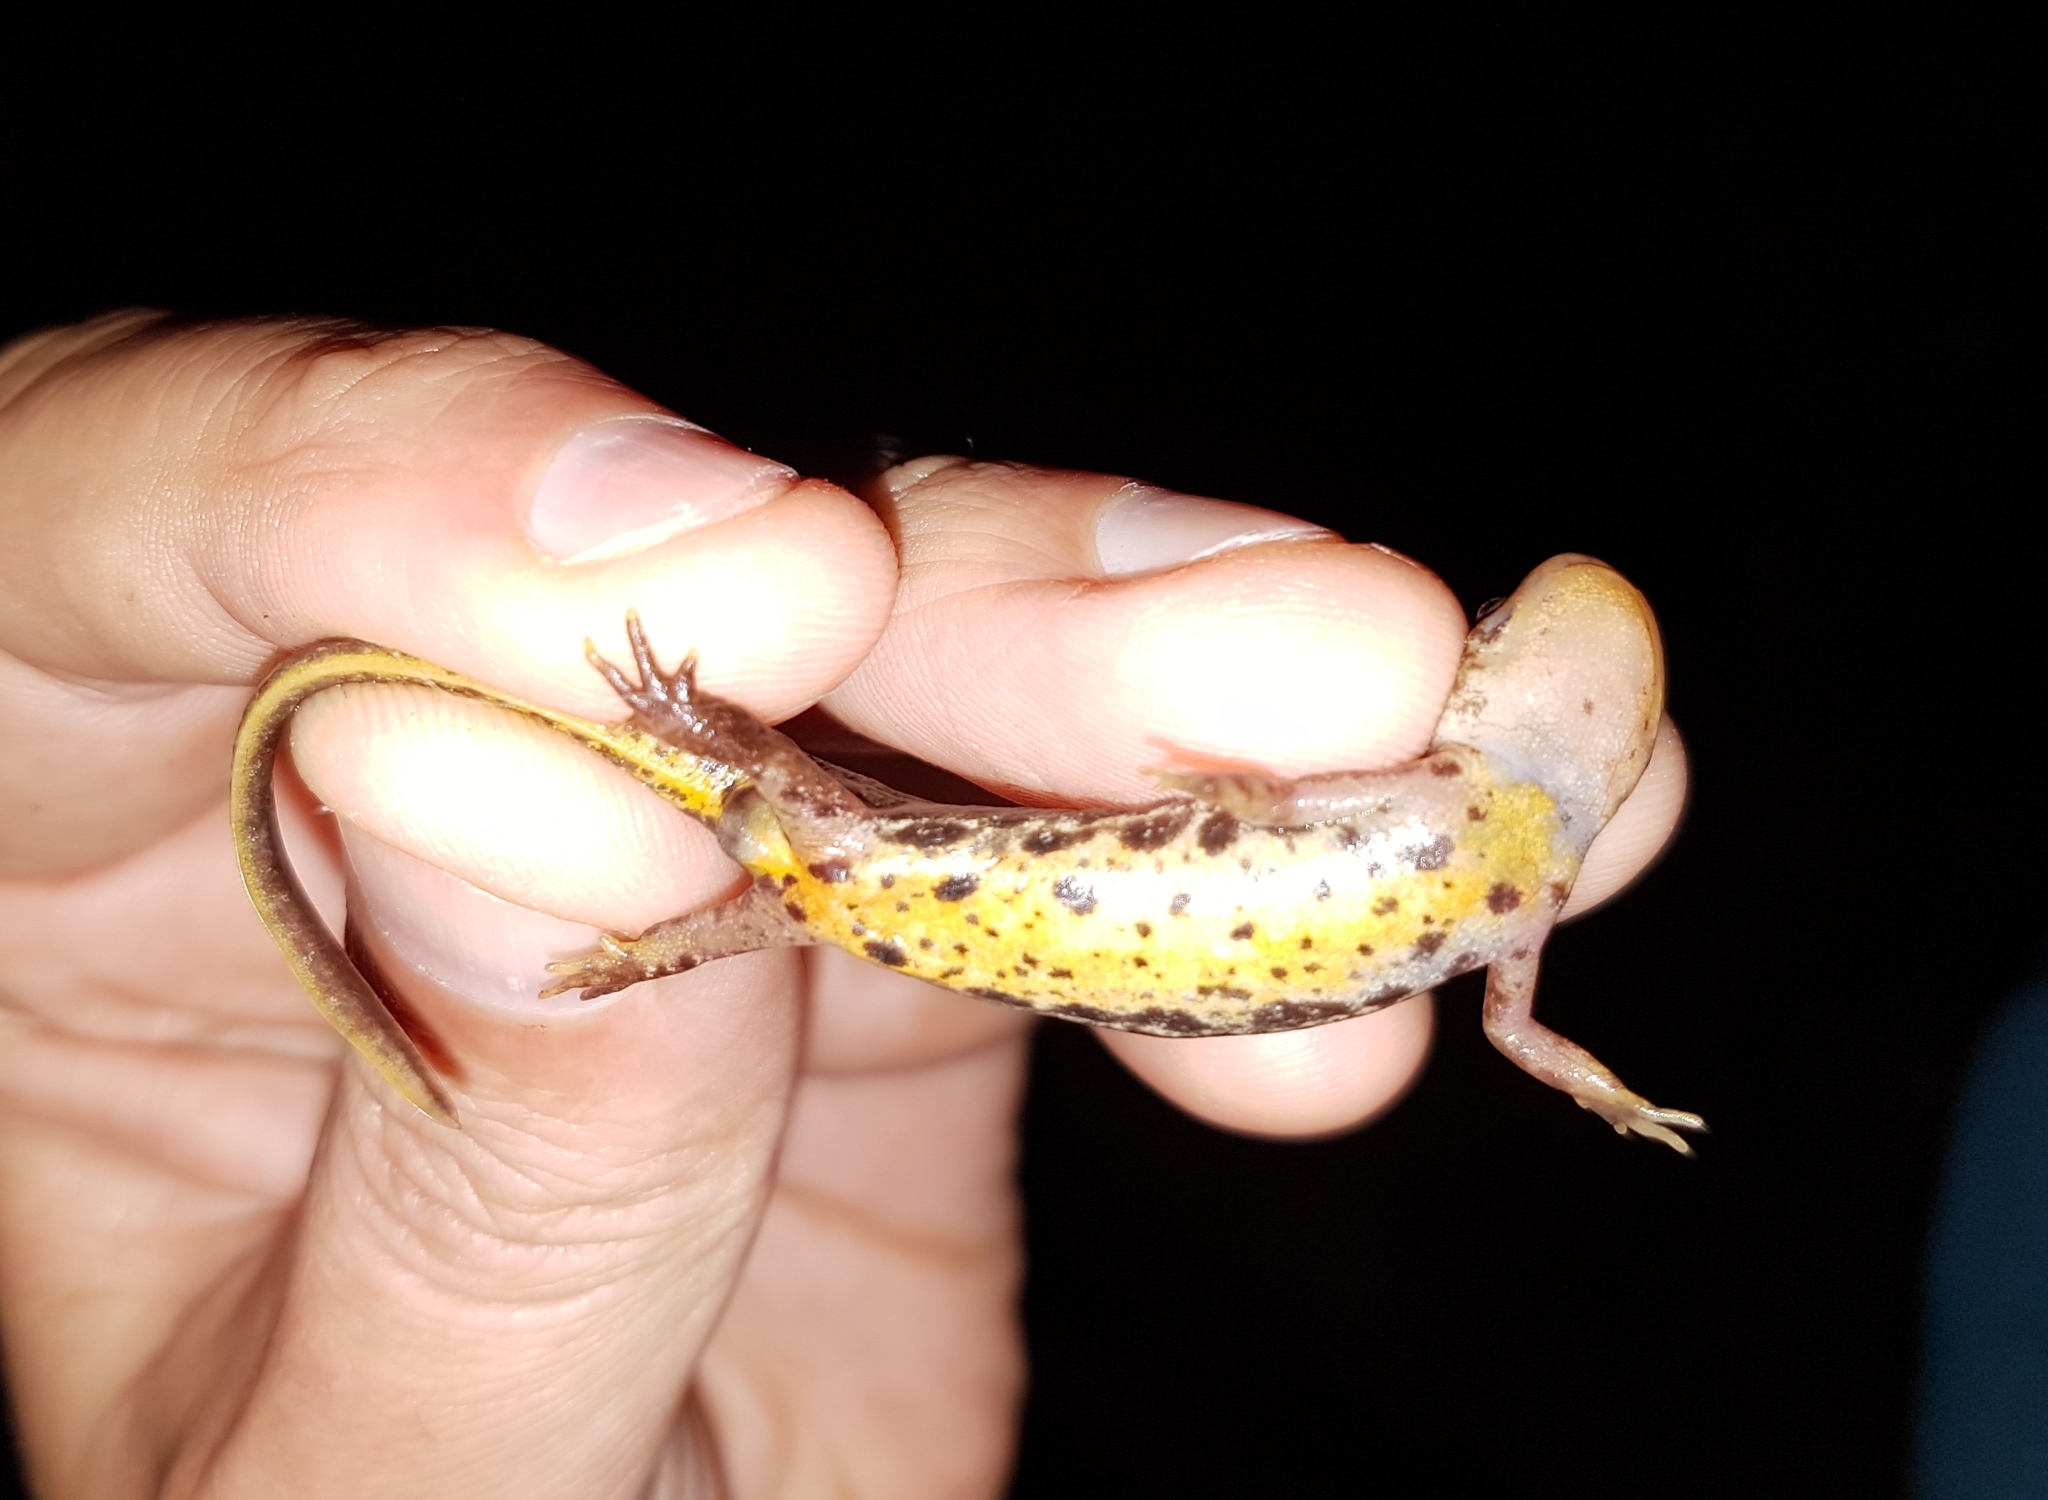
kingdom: Animalia
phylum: Chordata
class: Amphibia
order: Caudata
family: Salamandridae
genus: Lissotriton
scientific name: Lissotriton boscai
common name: Bosca's newt
